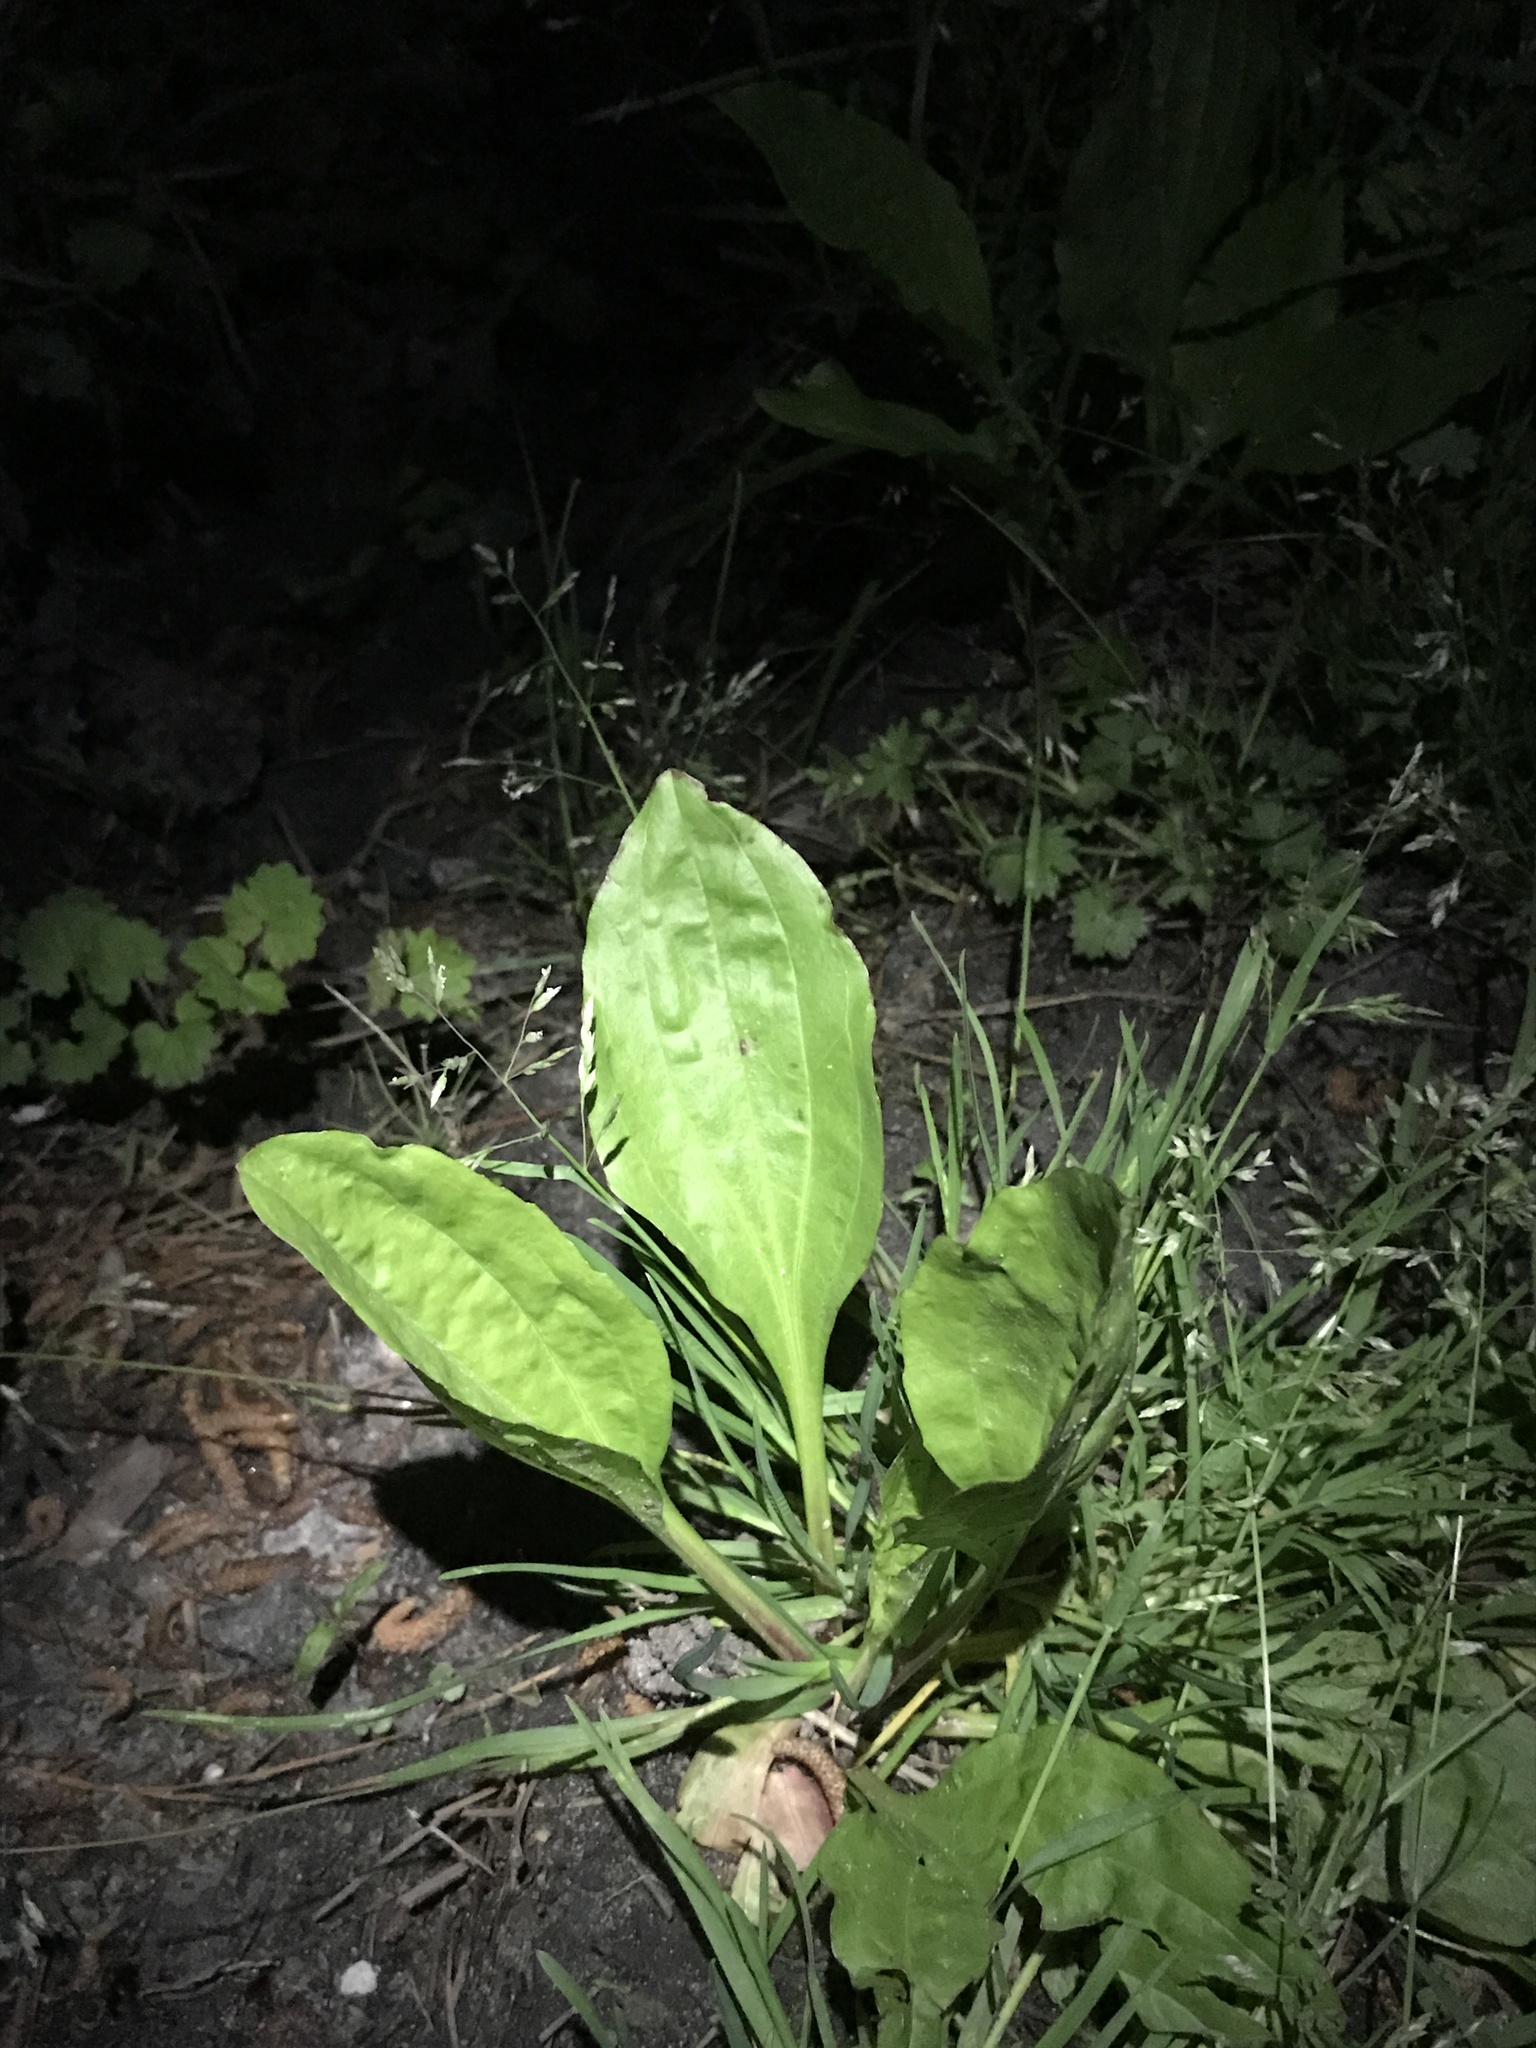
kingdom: Plantae
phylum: Tracheophyta
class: Magnoliopsida
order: Lamiales
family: Plantaginaceae
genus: Plantago
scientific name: Plantago rugelii
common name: American plantain
